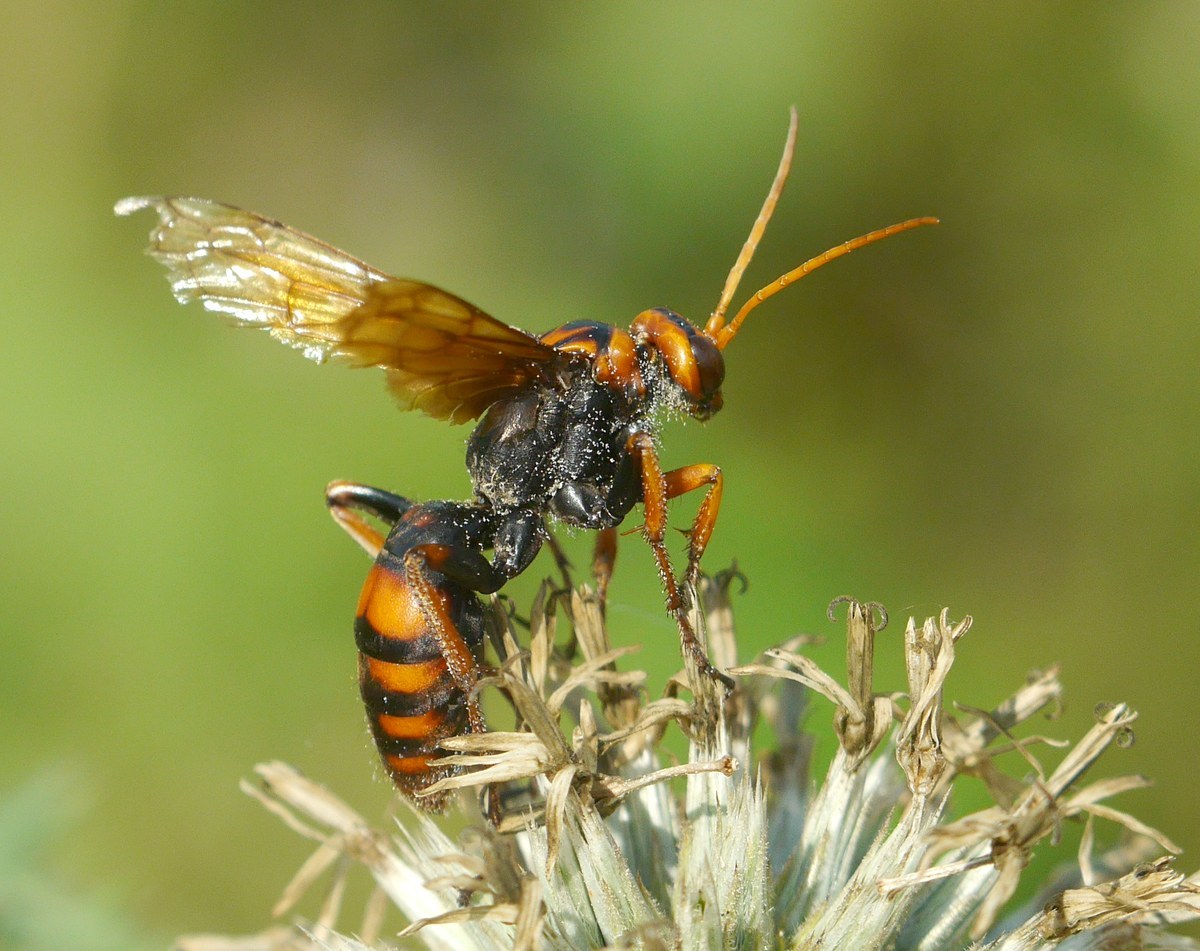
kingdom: Animalia
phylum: Arthropoda
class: Insecta
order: Hymenoptera
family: Pompilidae
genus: Cryptocheilus
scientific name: Cryptocheilus rubellus
